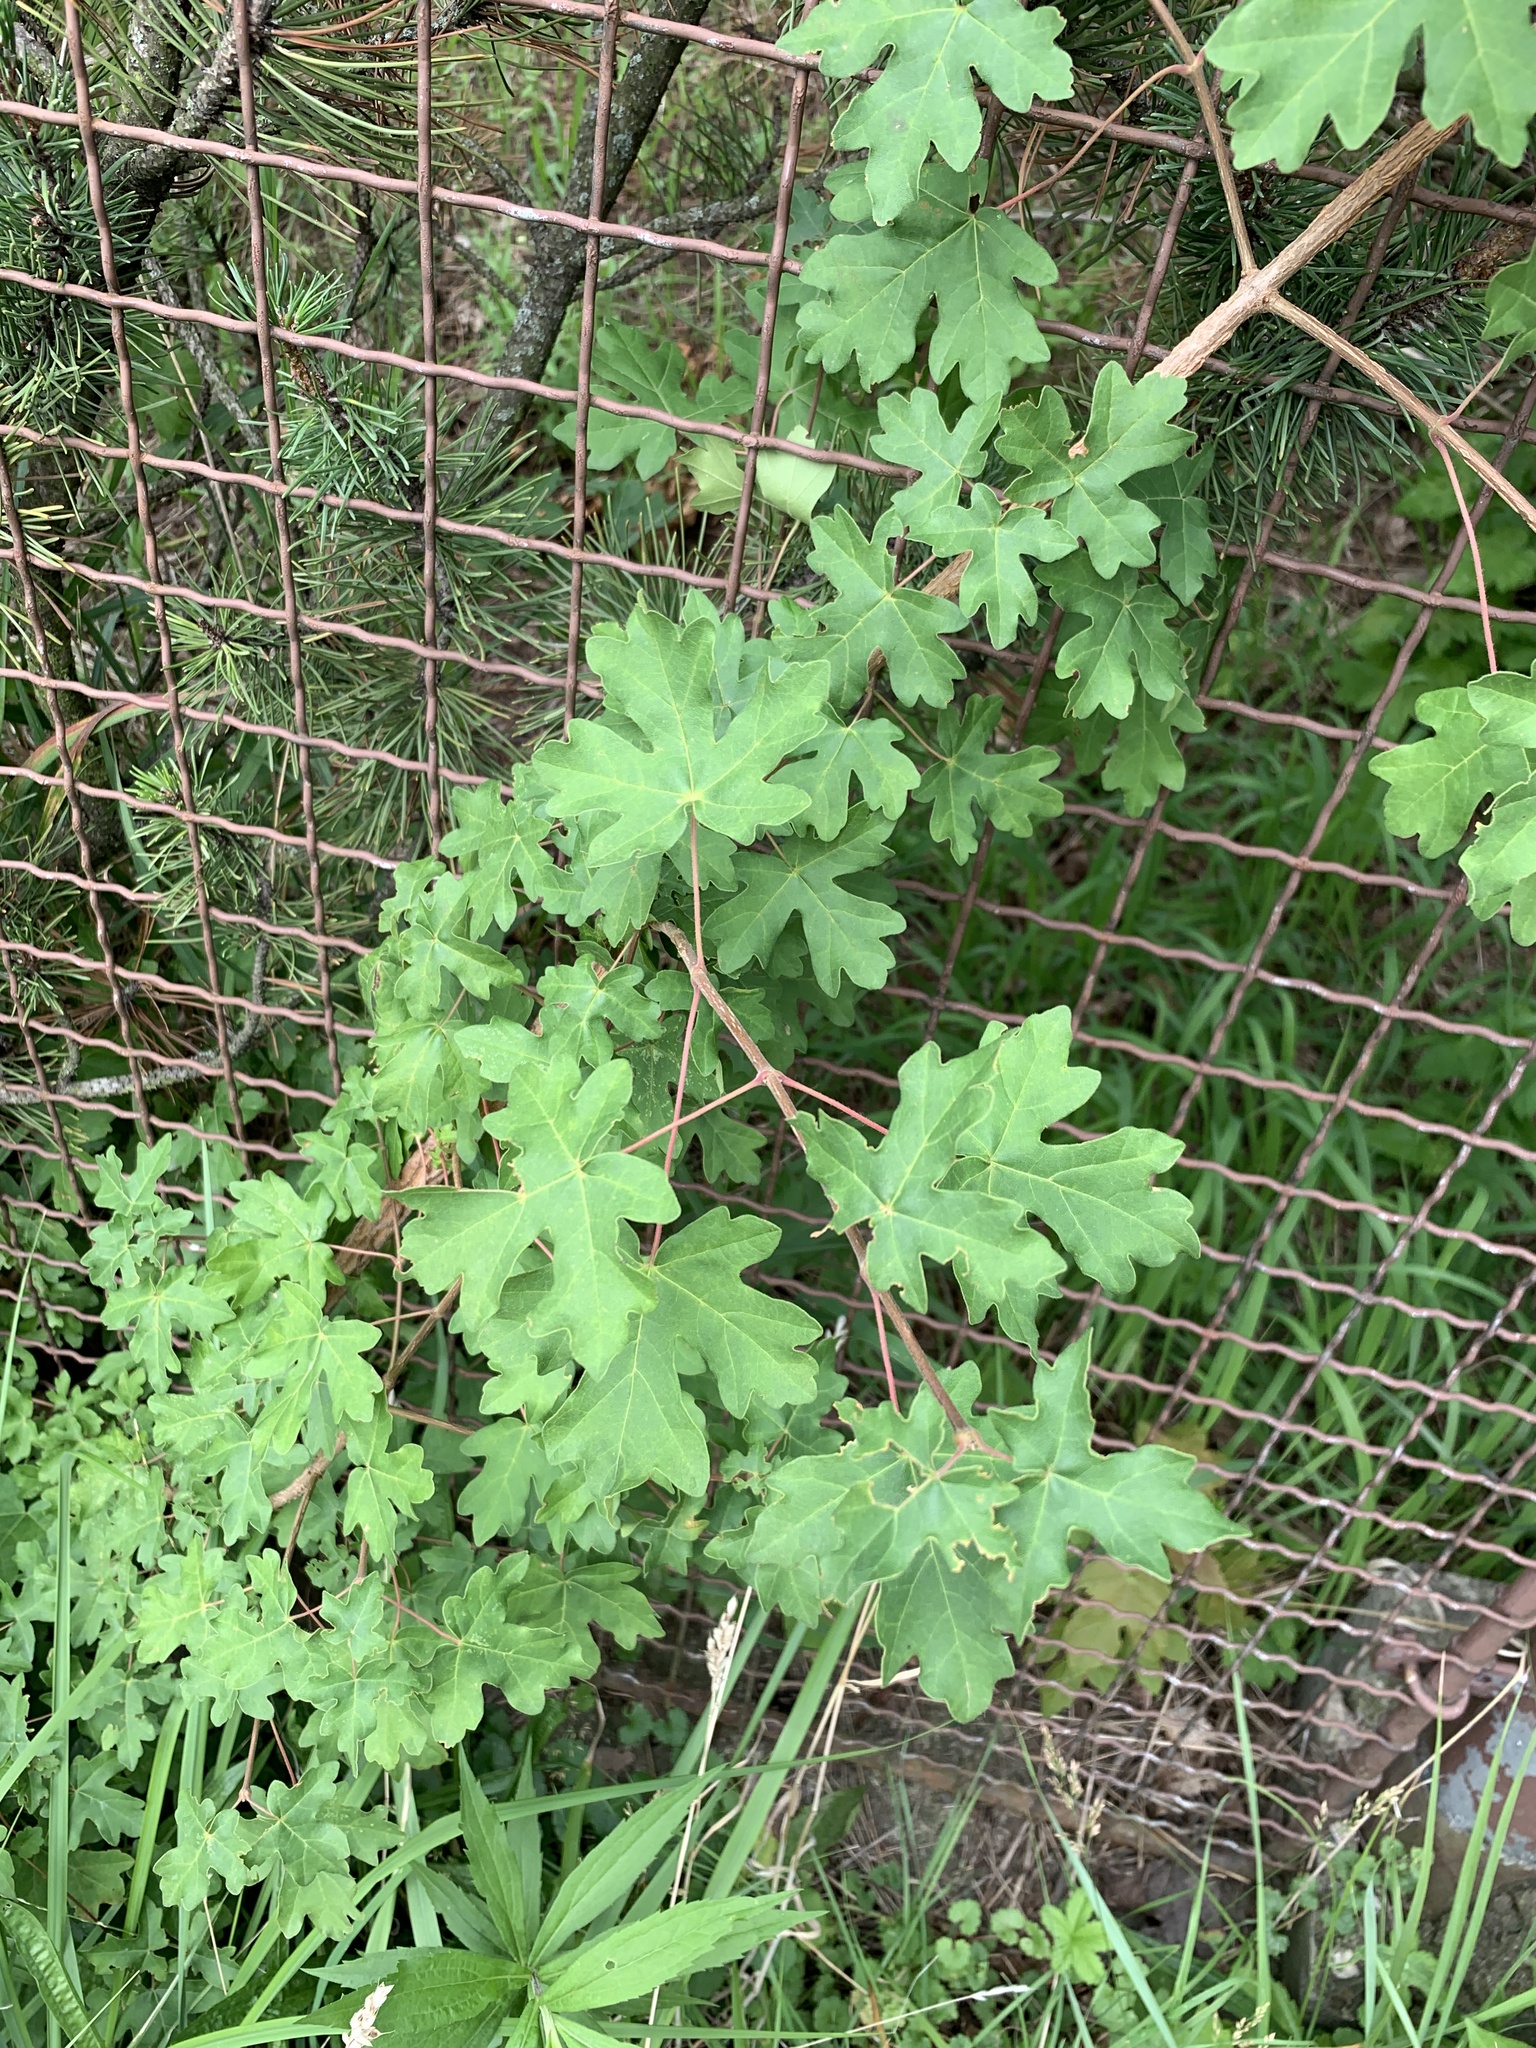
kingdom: Plantae
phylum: Tracheophyta
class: Magnoliopsida
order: Sapindales
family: Sapindaceae
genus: Acer
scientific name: Acer campestre
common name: Field maple
